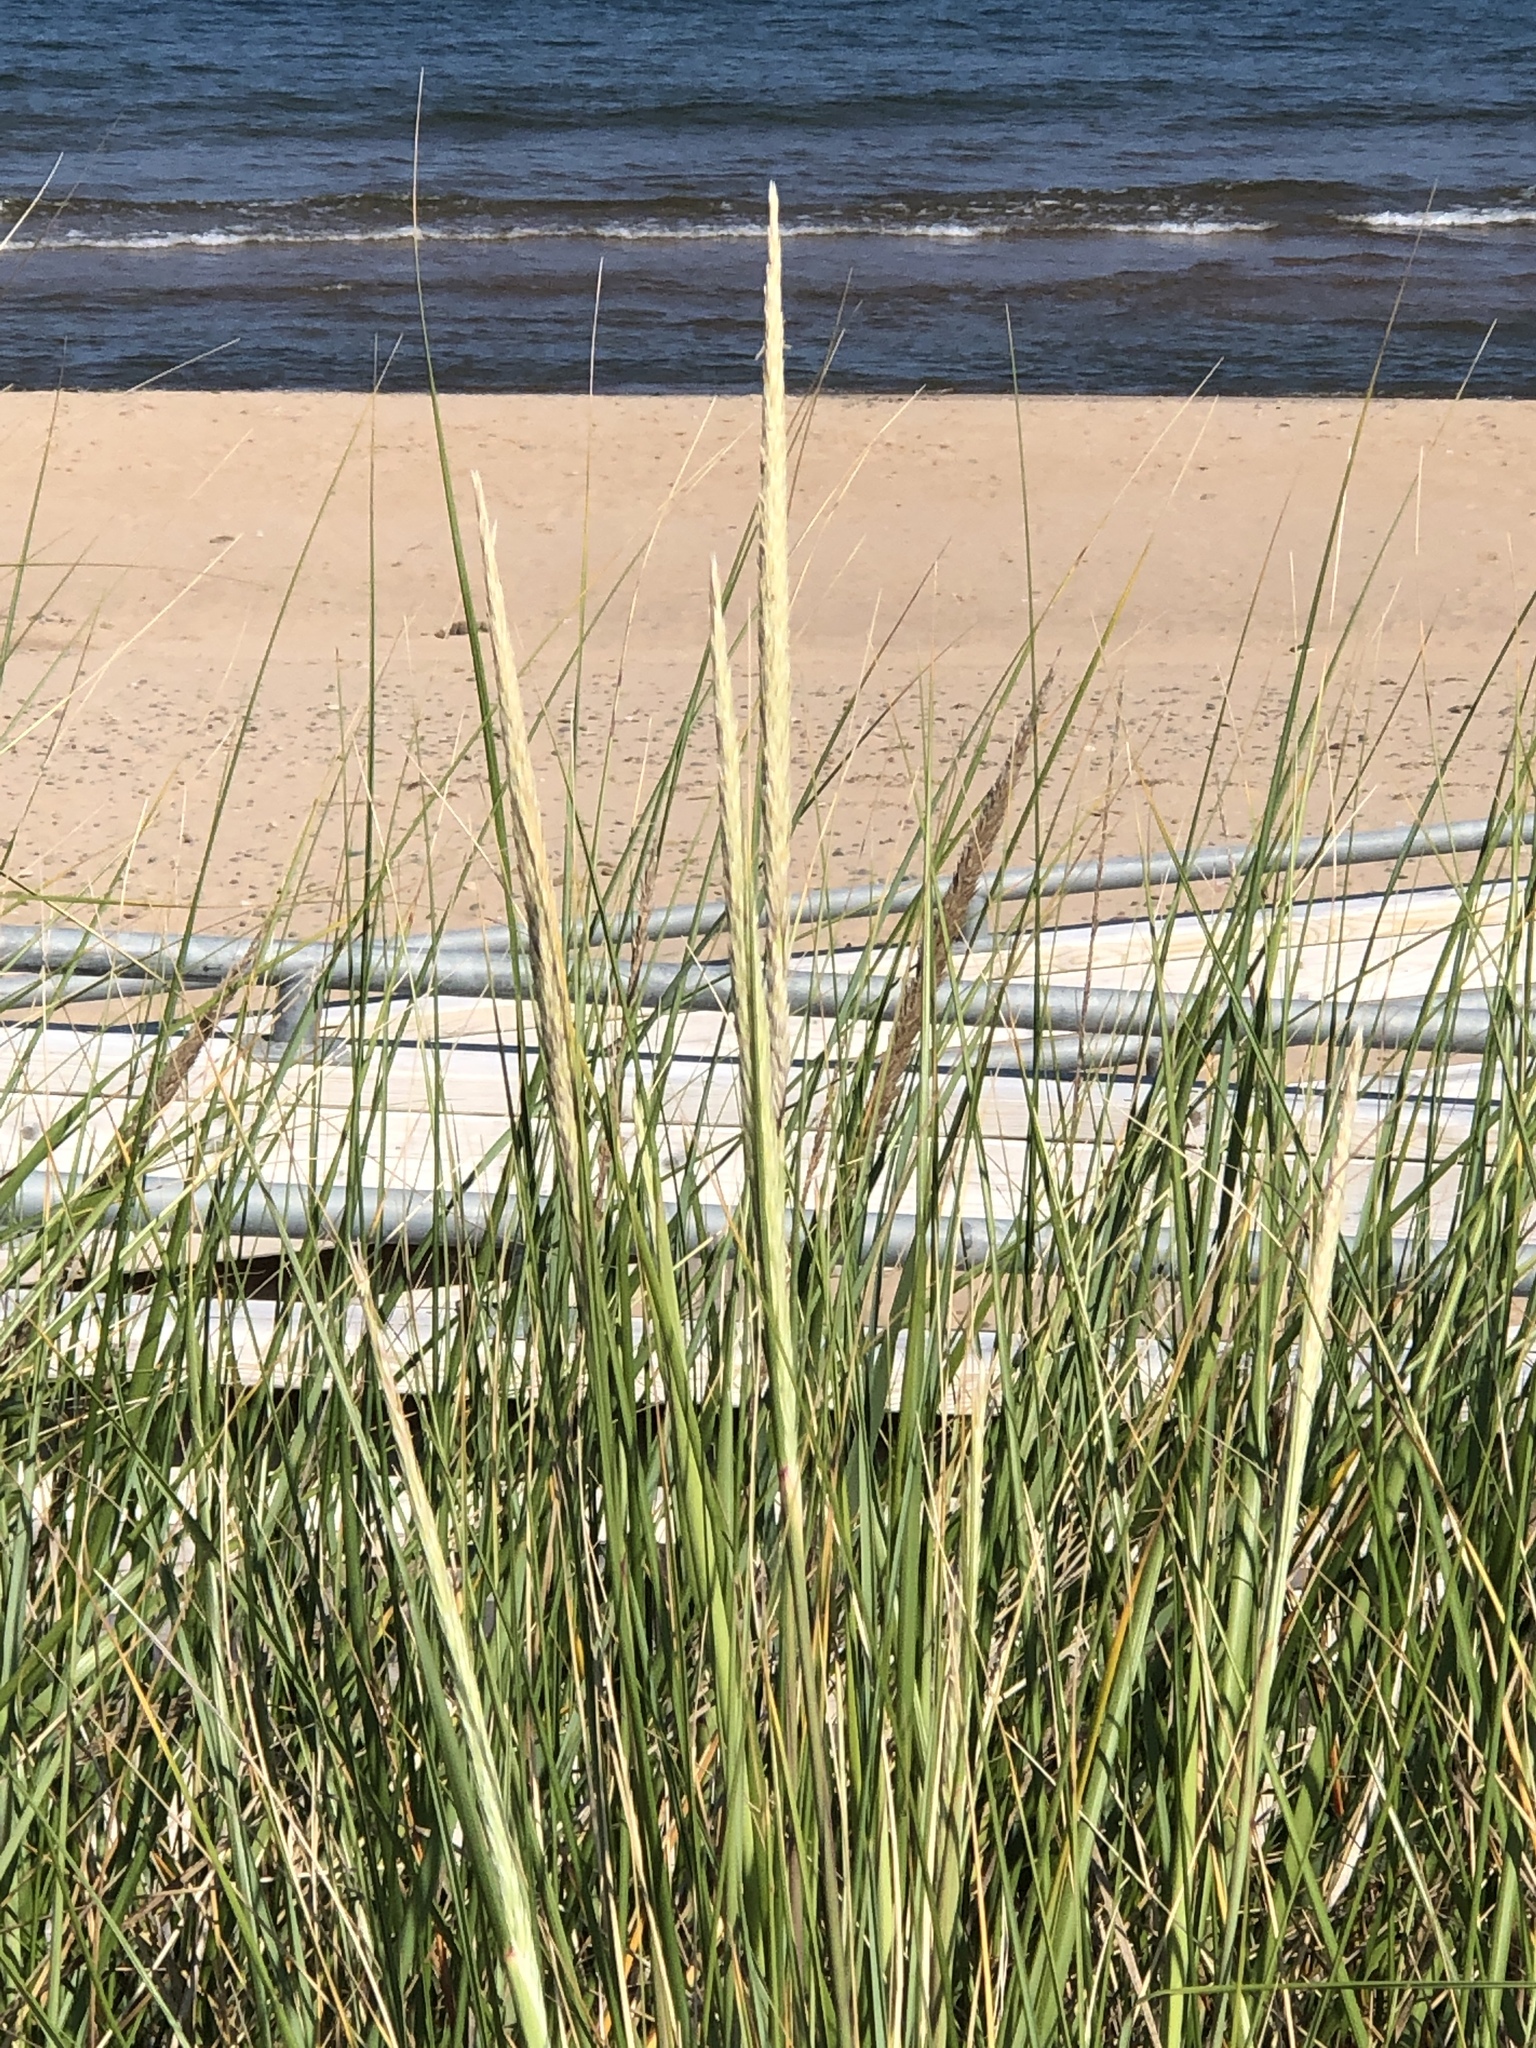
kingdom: Plantae
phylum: Tracheophyta
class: Liliopsida
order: Poales
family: Poaceae
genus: Calamagrostis
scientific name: Calamagrostis breviligulata
